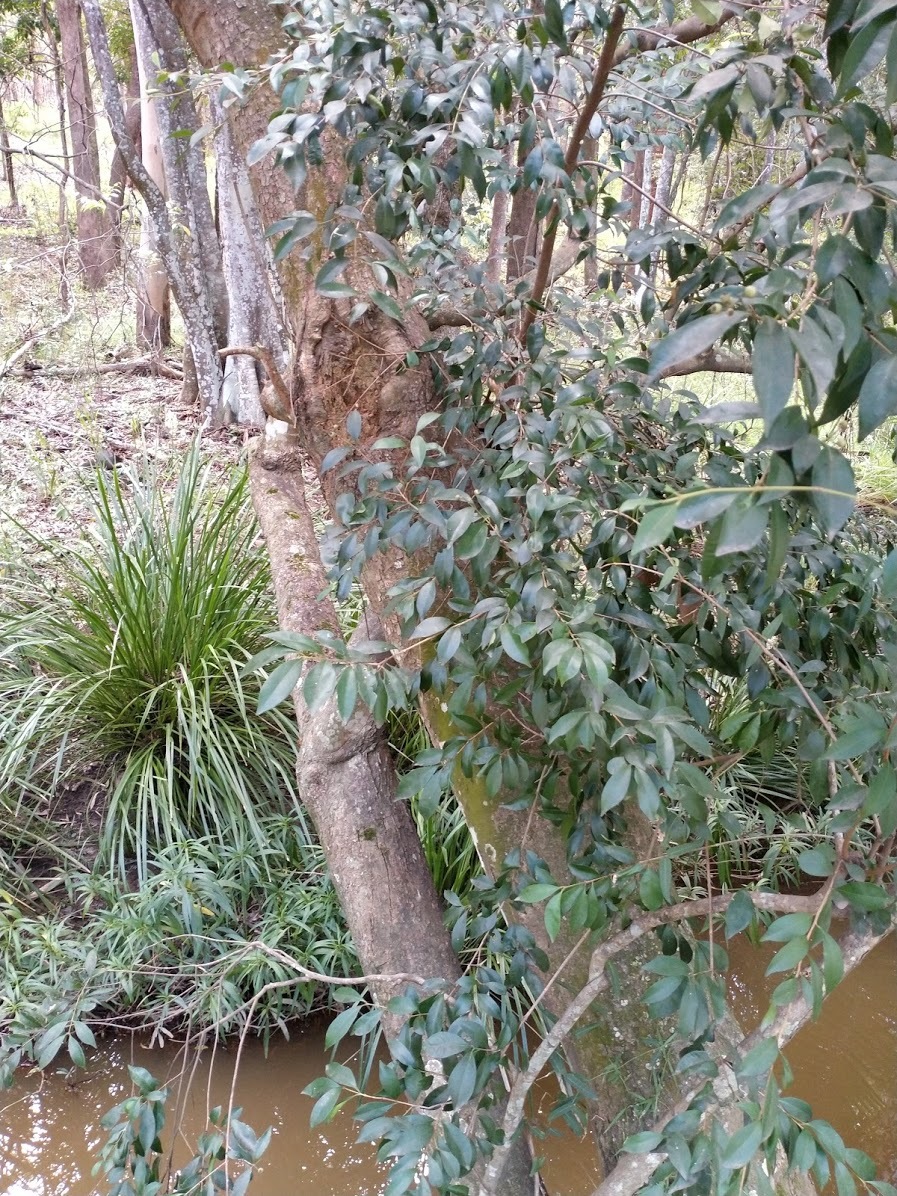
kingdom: Plantae
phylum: Tracheophyta
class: Magnoliopsida
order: Myrtales
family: Myrtaceae
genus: Syzygium
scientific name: Syzygium smithii
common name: Lilly-pilly
